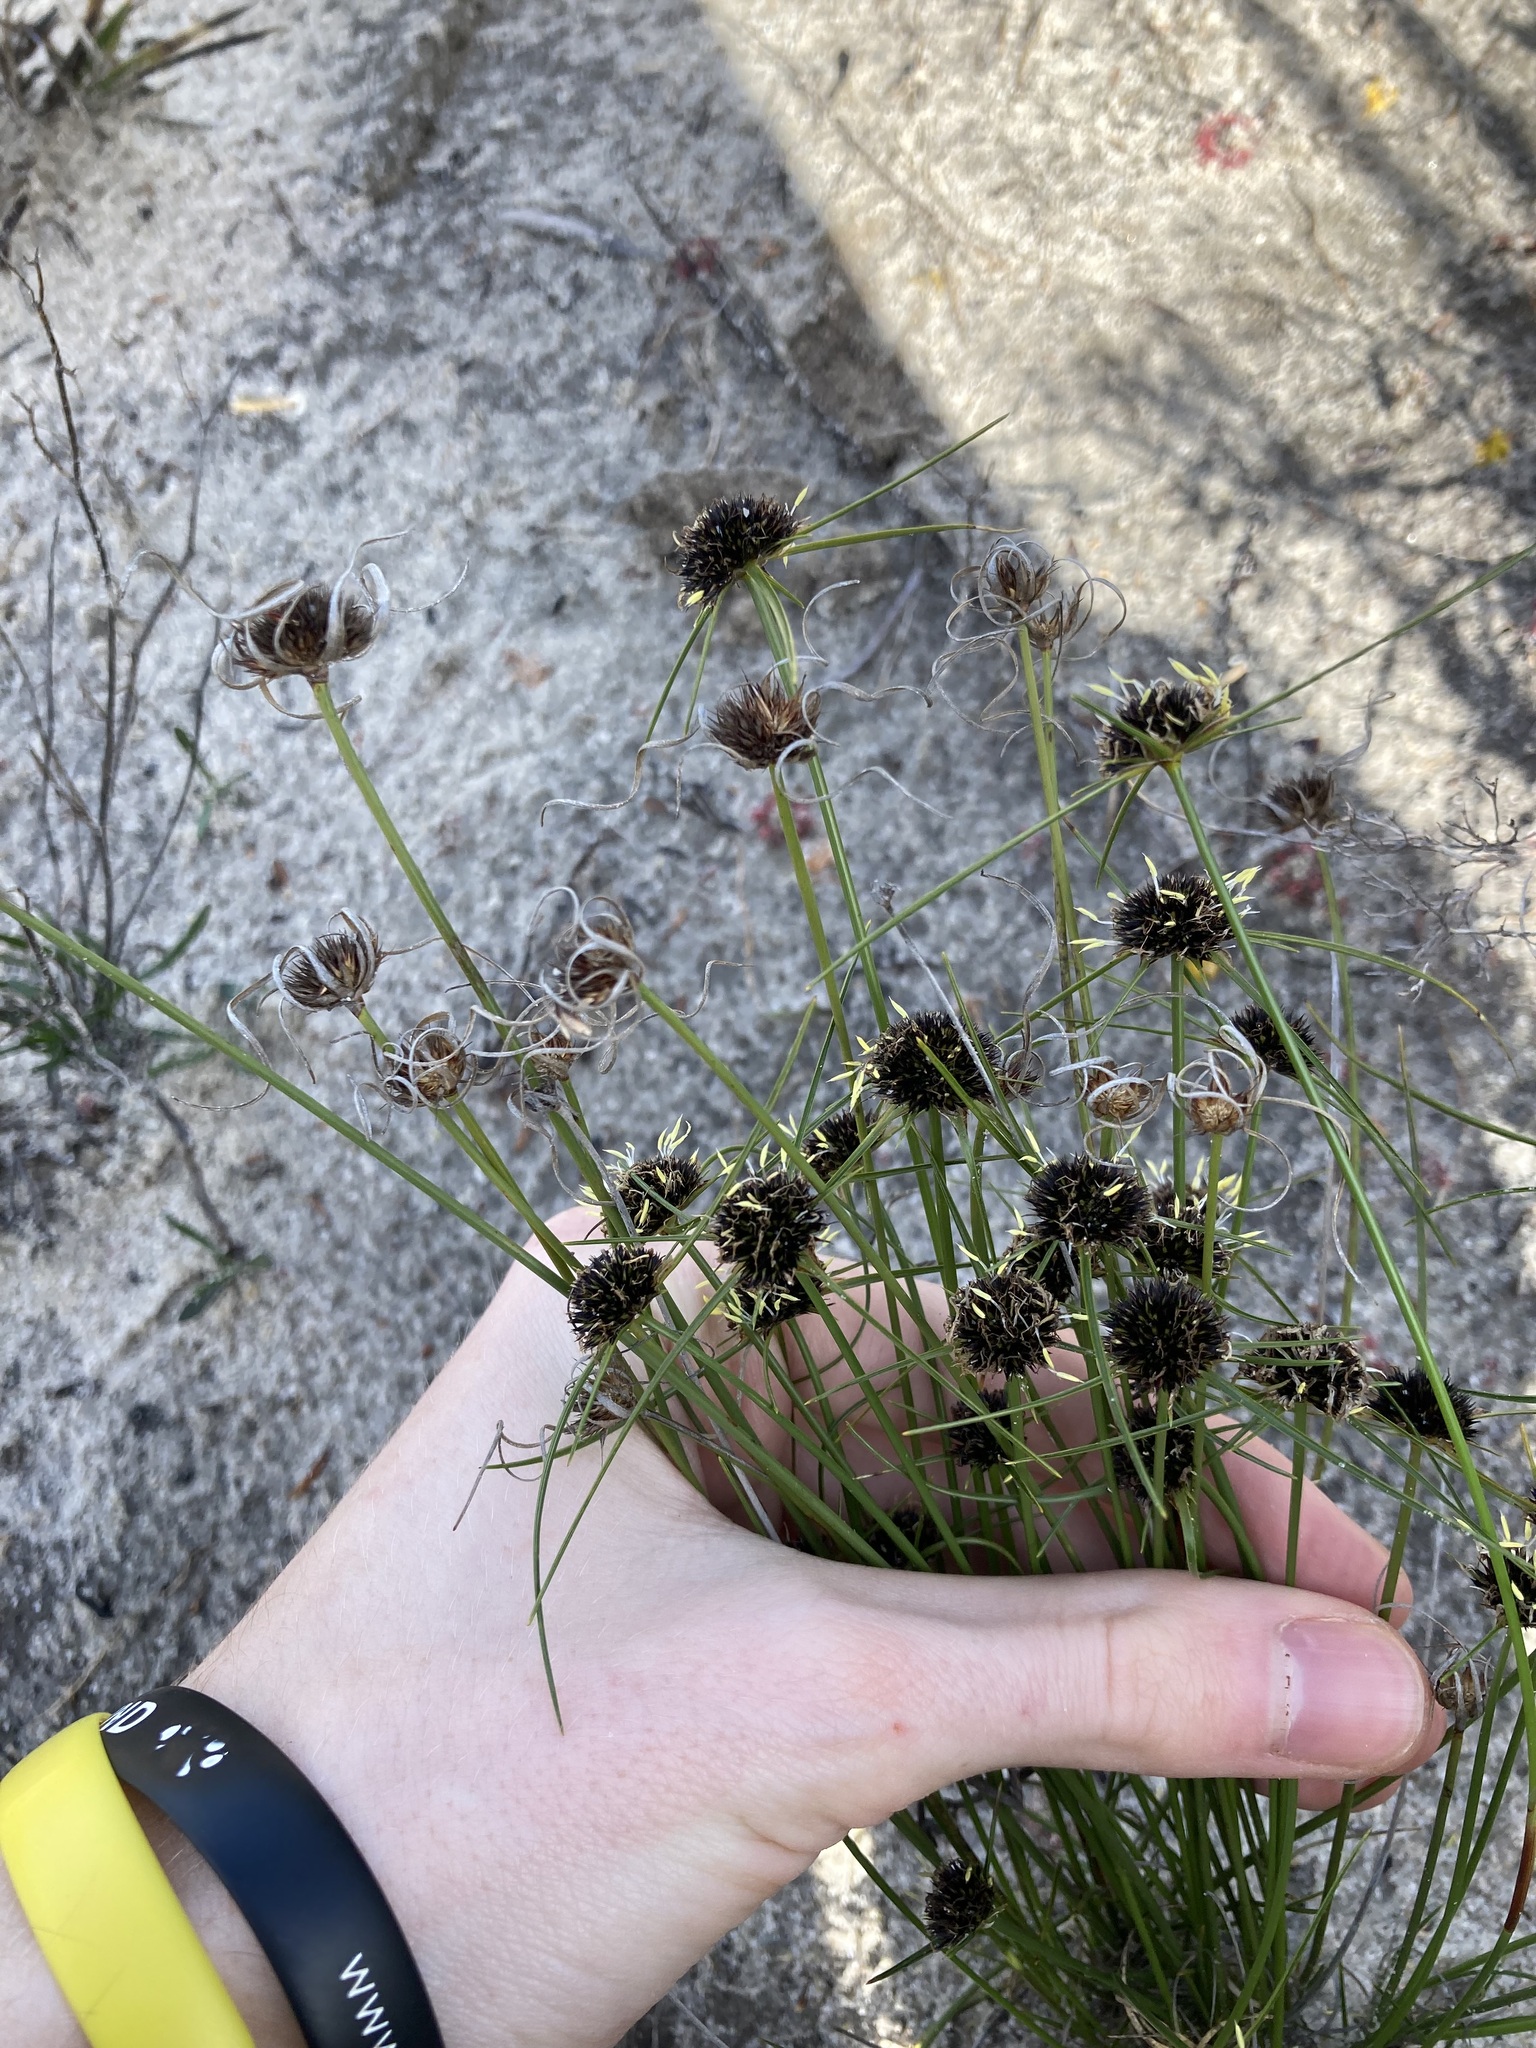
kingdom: Plantae
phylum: Tracheophyta
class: Liliopsida
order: Poales
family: Cyperaceae
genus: Schoenus
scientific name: Schoenus curvifolius
